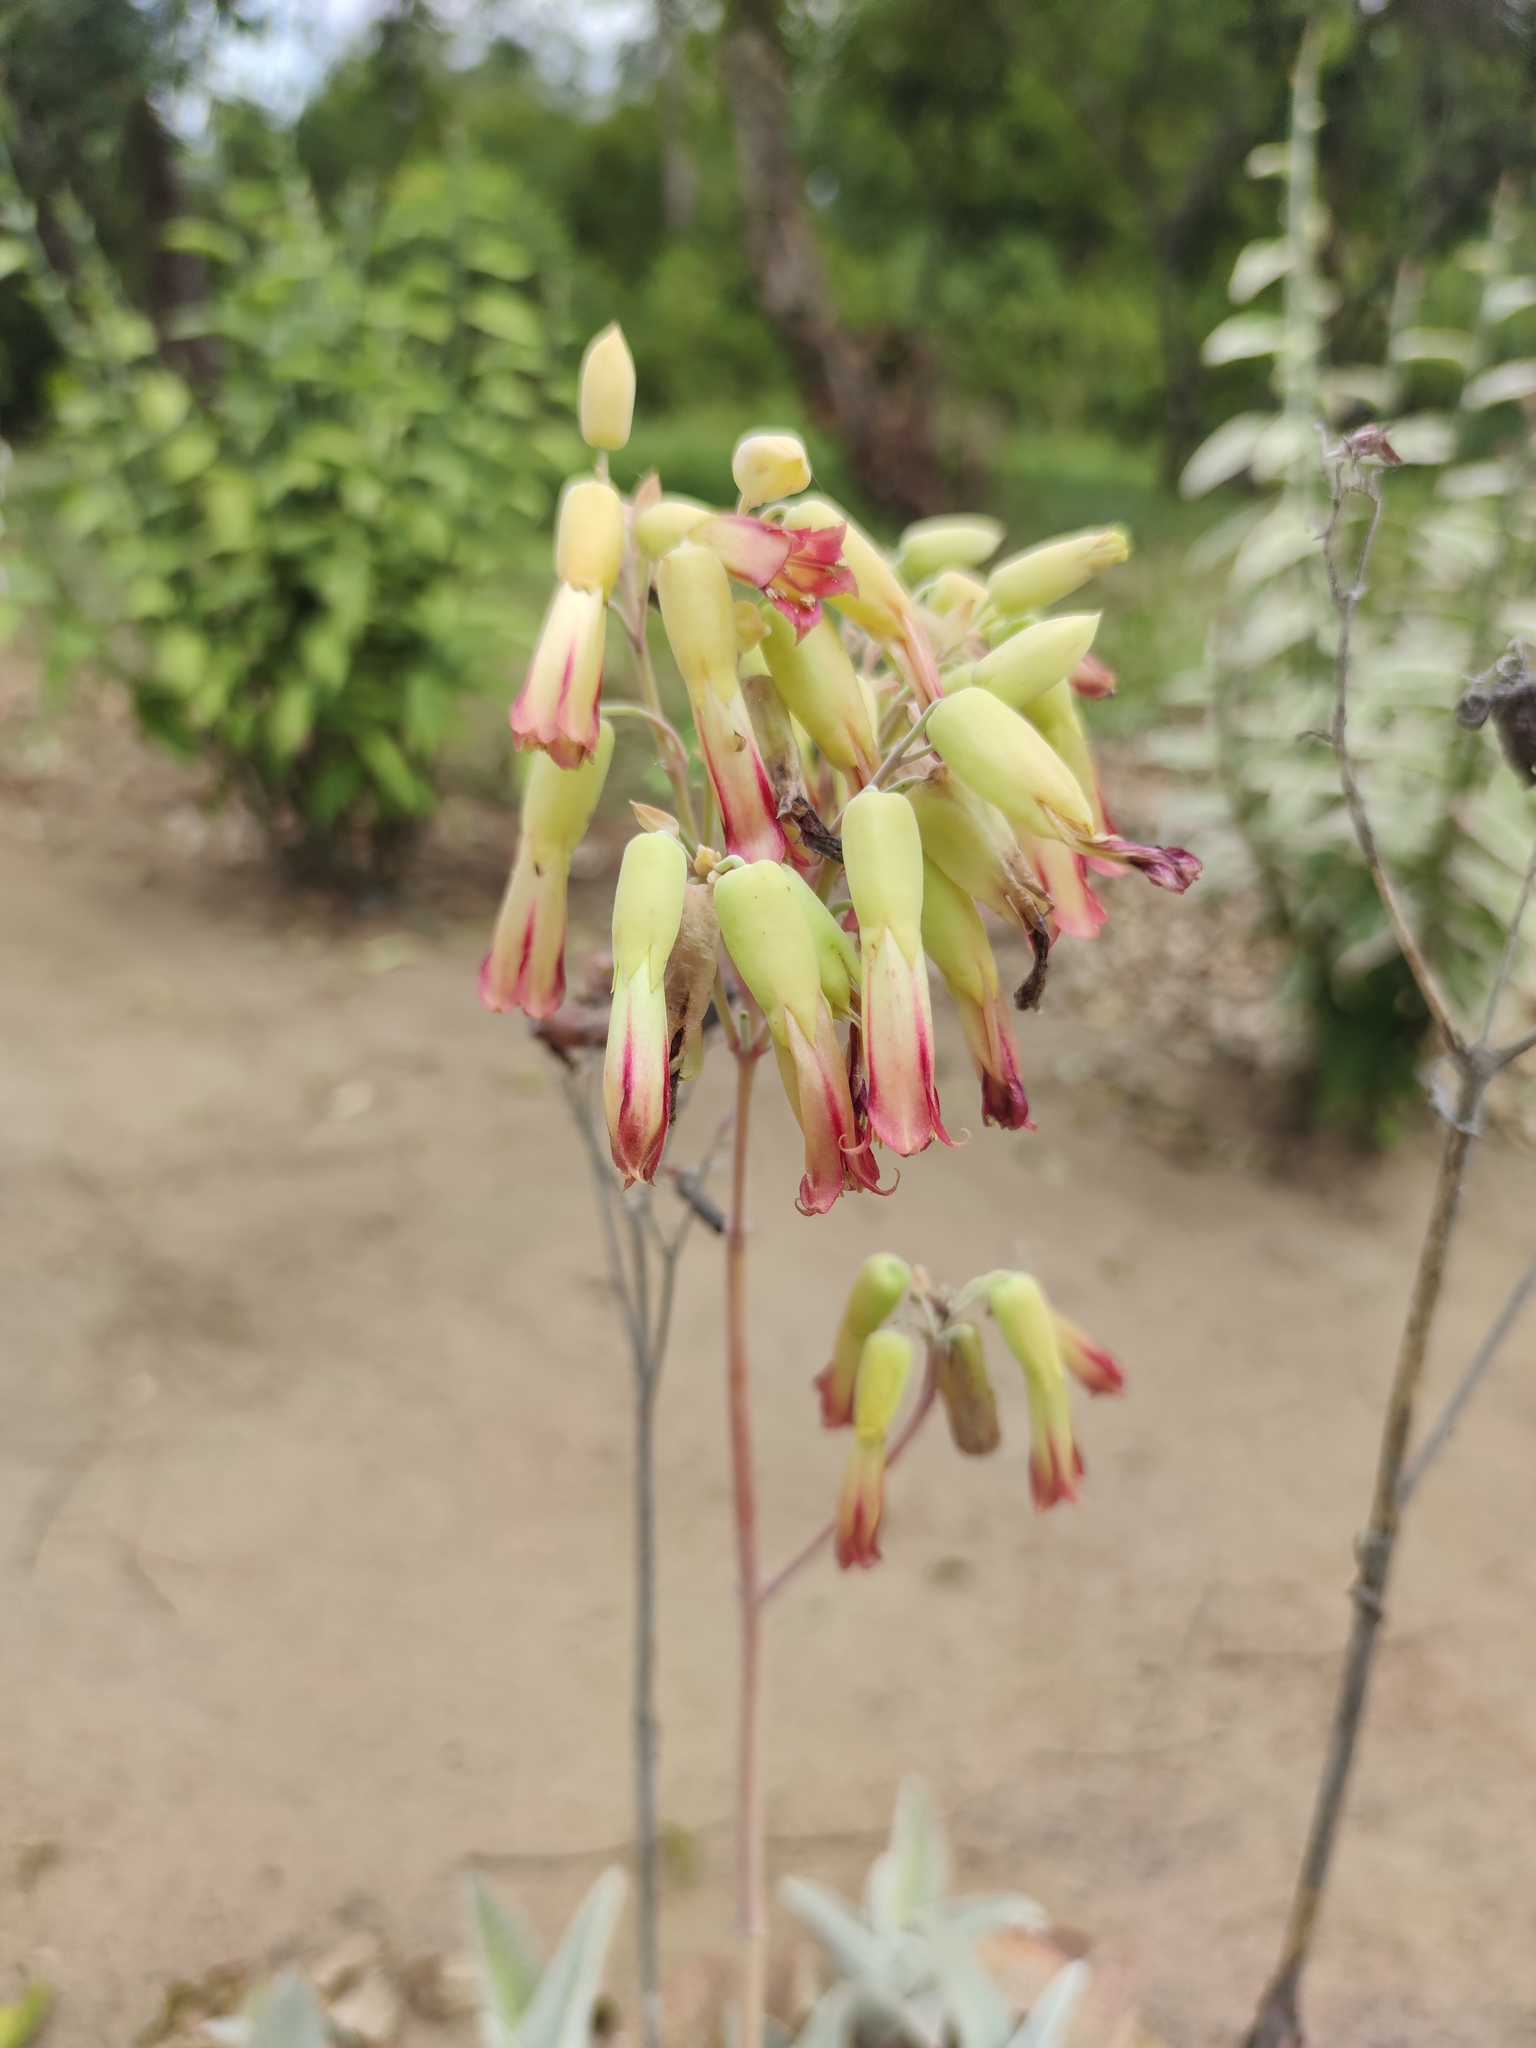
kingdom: Plantae
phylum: Tracheophyta
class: Magnoliopsida
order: Saxifragales
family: Crassulaceae
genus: Kalanchoe
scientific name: Kalanchoe gastonis-bonnieri
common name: Palm beachbells
